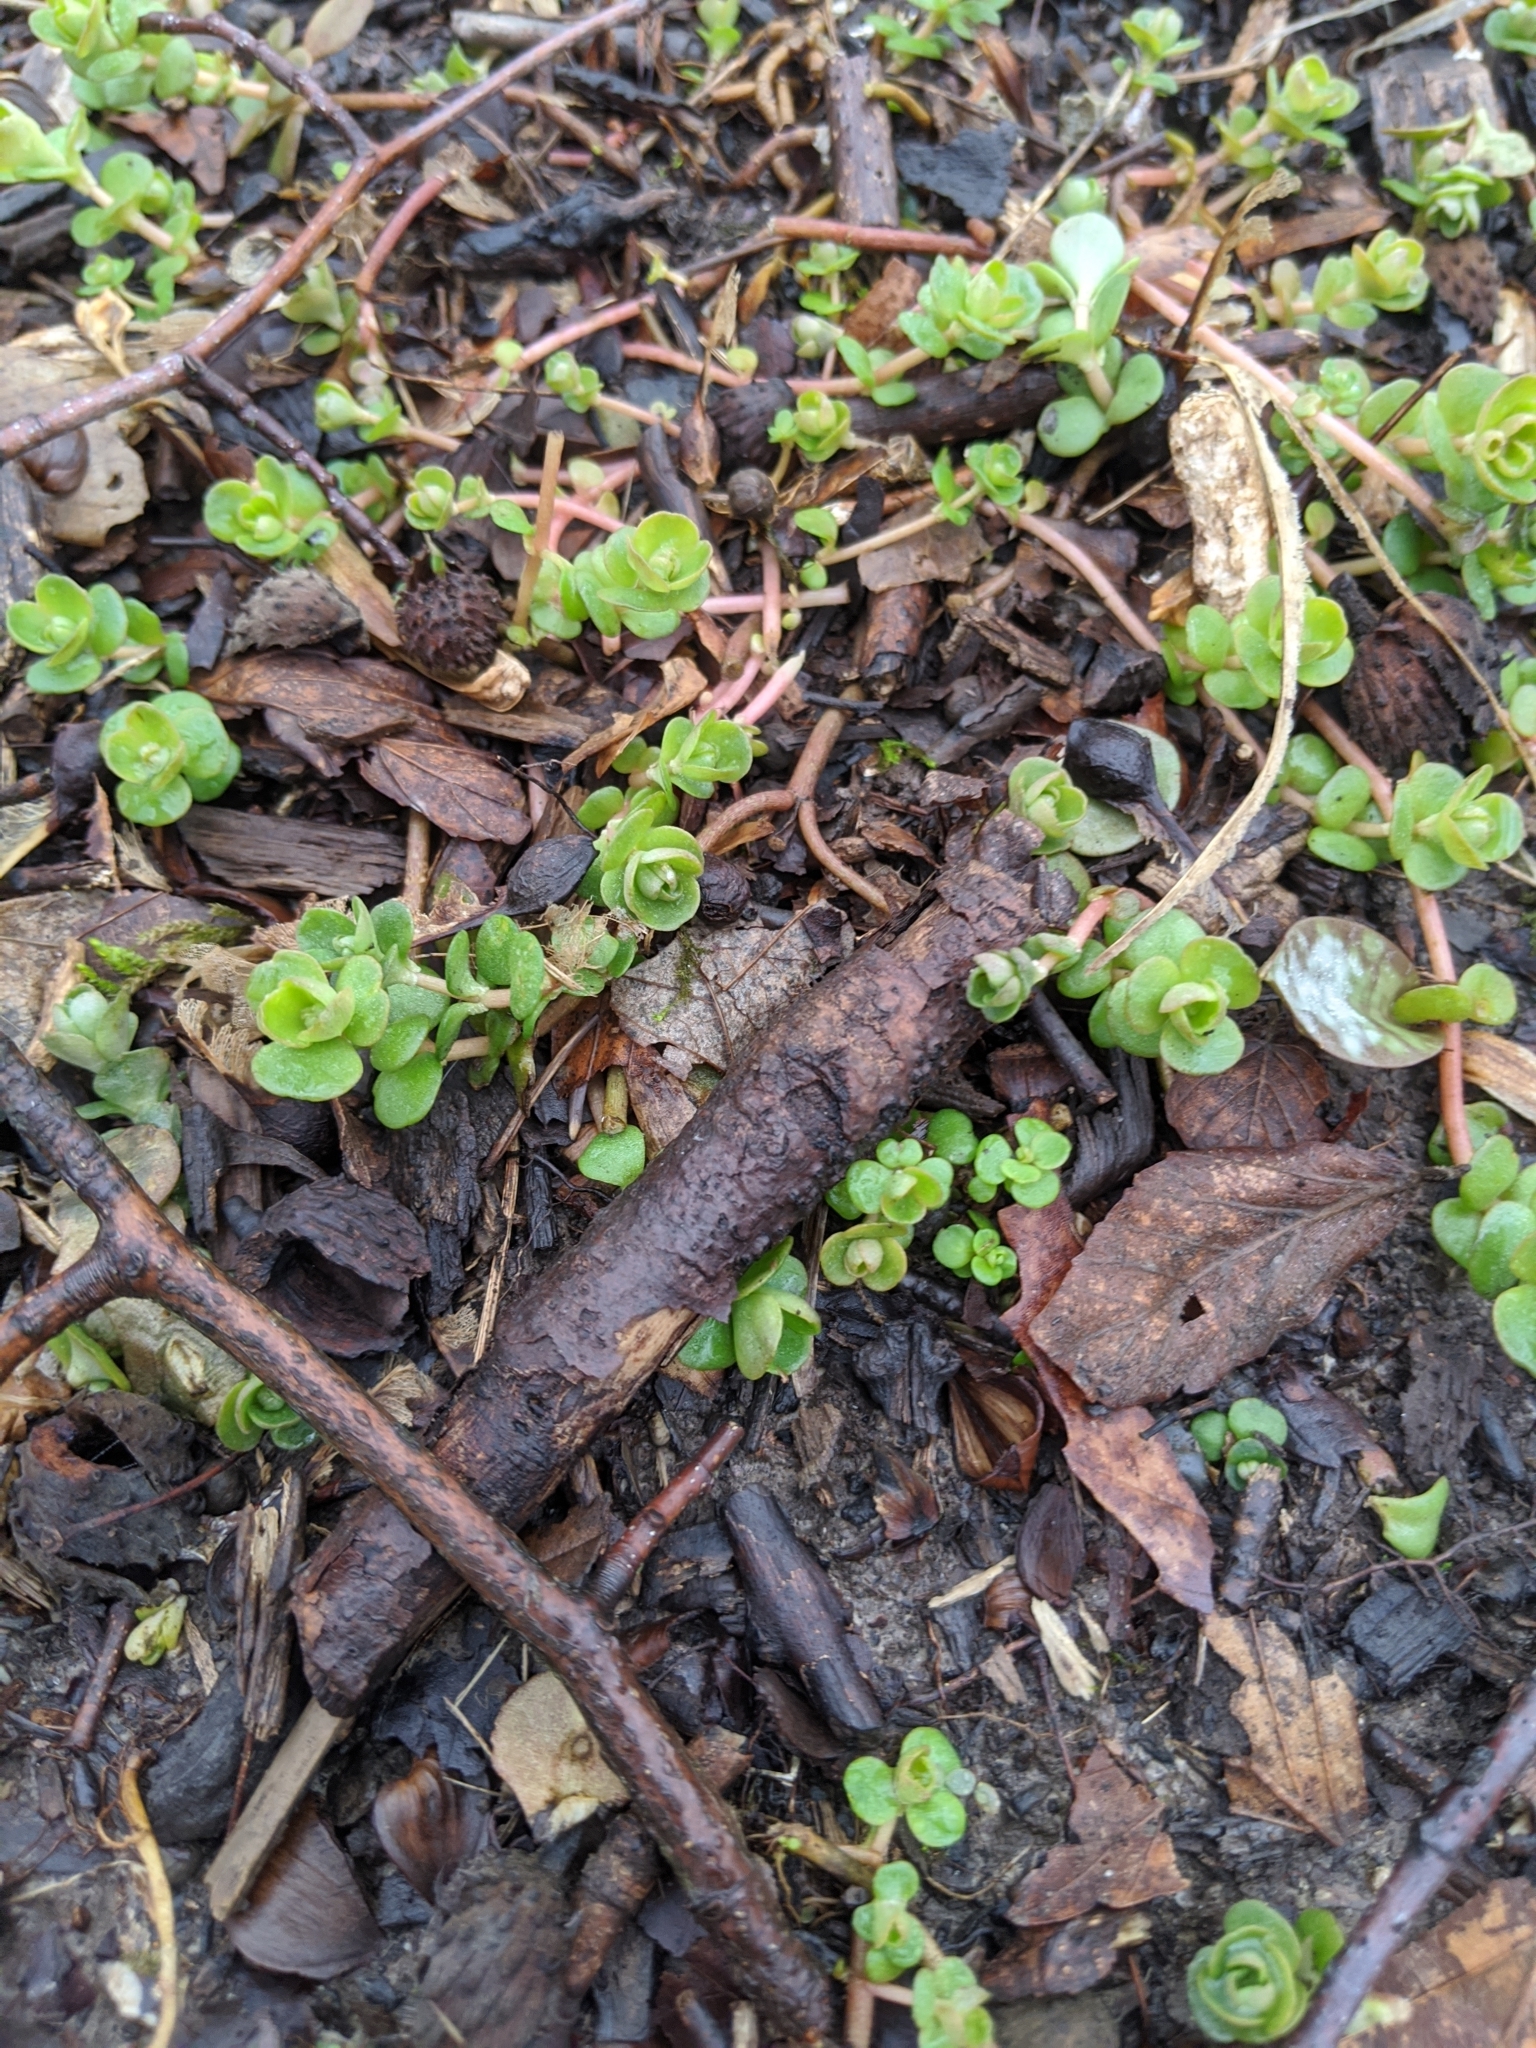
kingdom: Plantae
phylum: Tracheophyta
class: Magnoliopsida
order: Saxifragales
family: Crassulaceae
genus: Sedum
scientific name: Sedum ternatum
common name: Wild stonecrop
